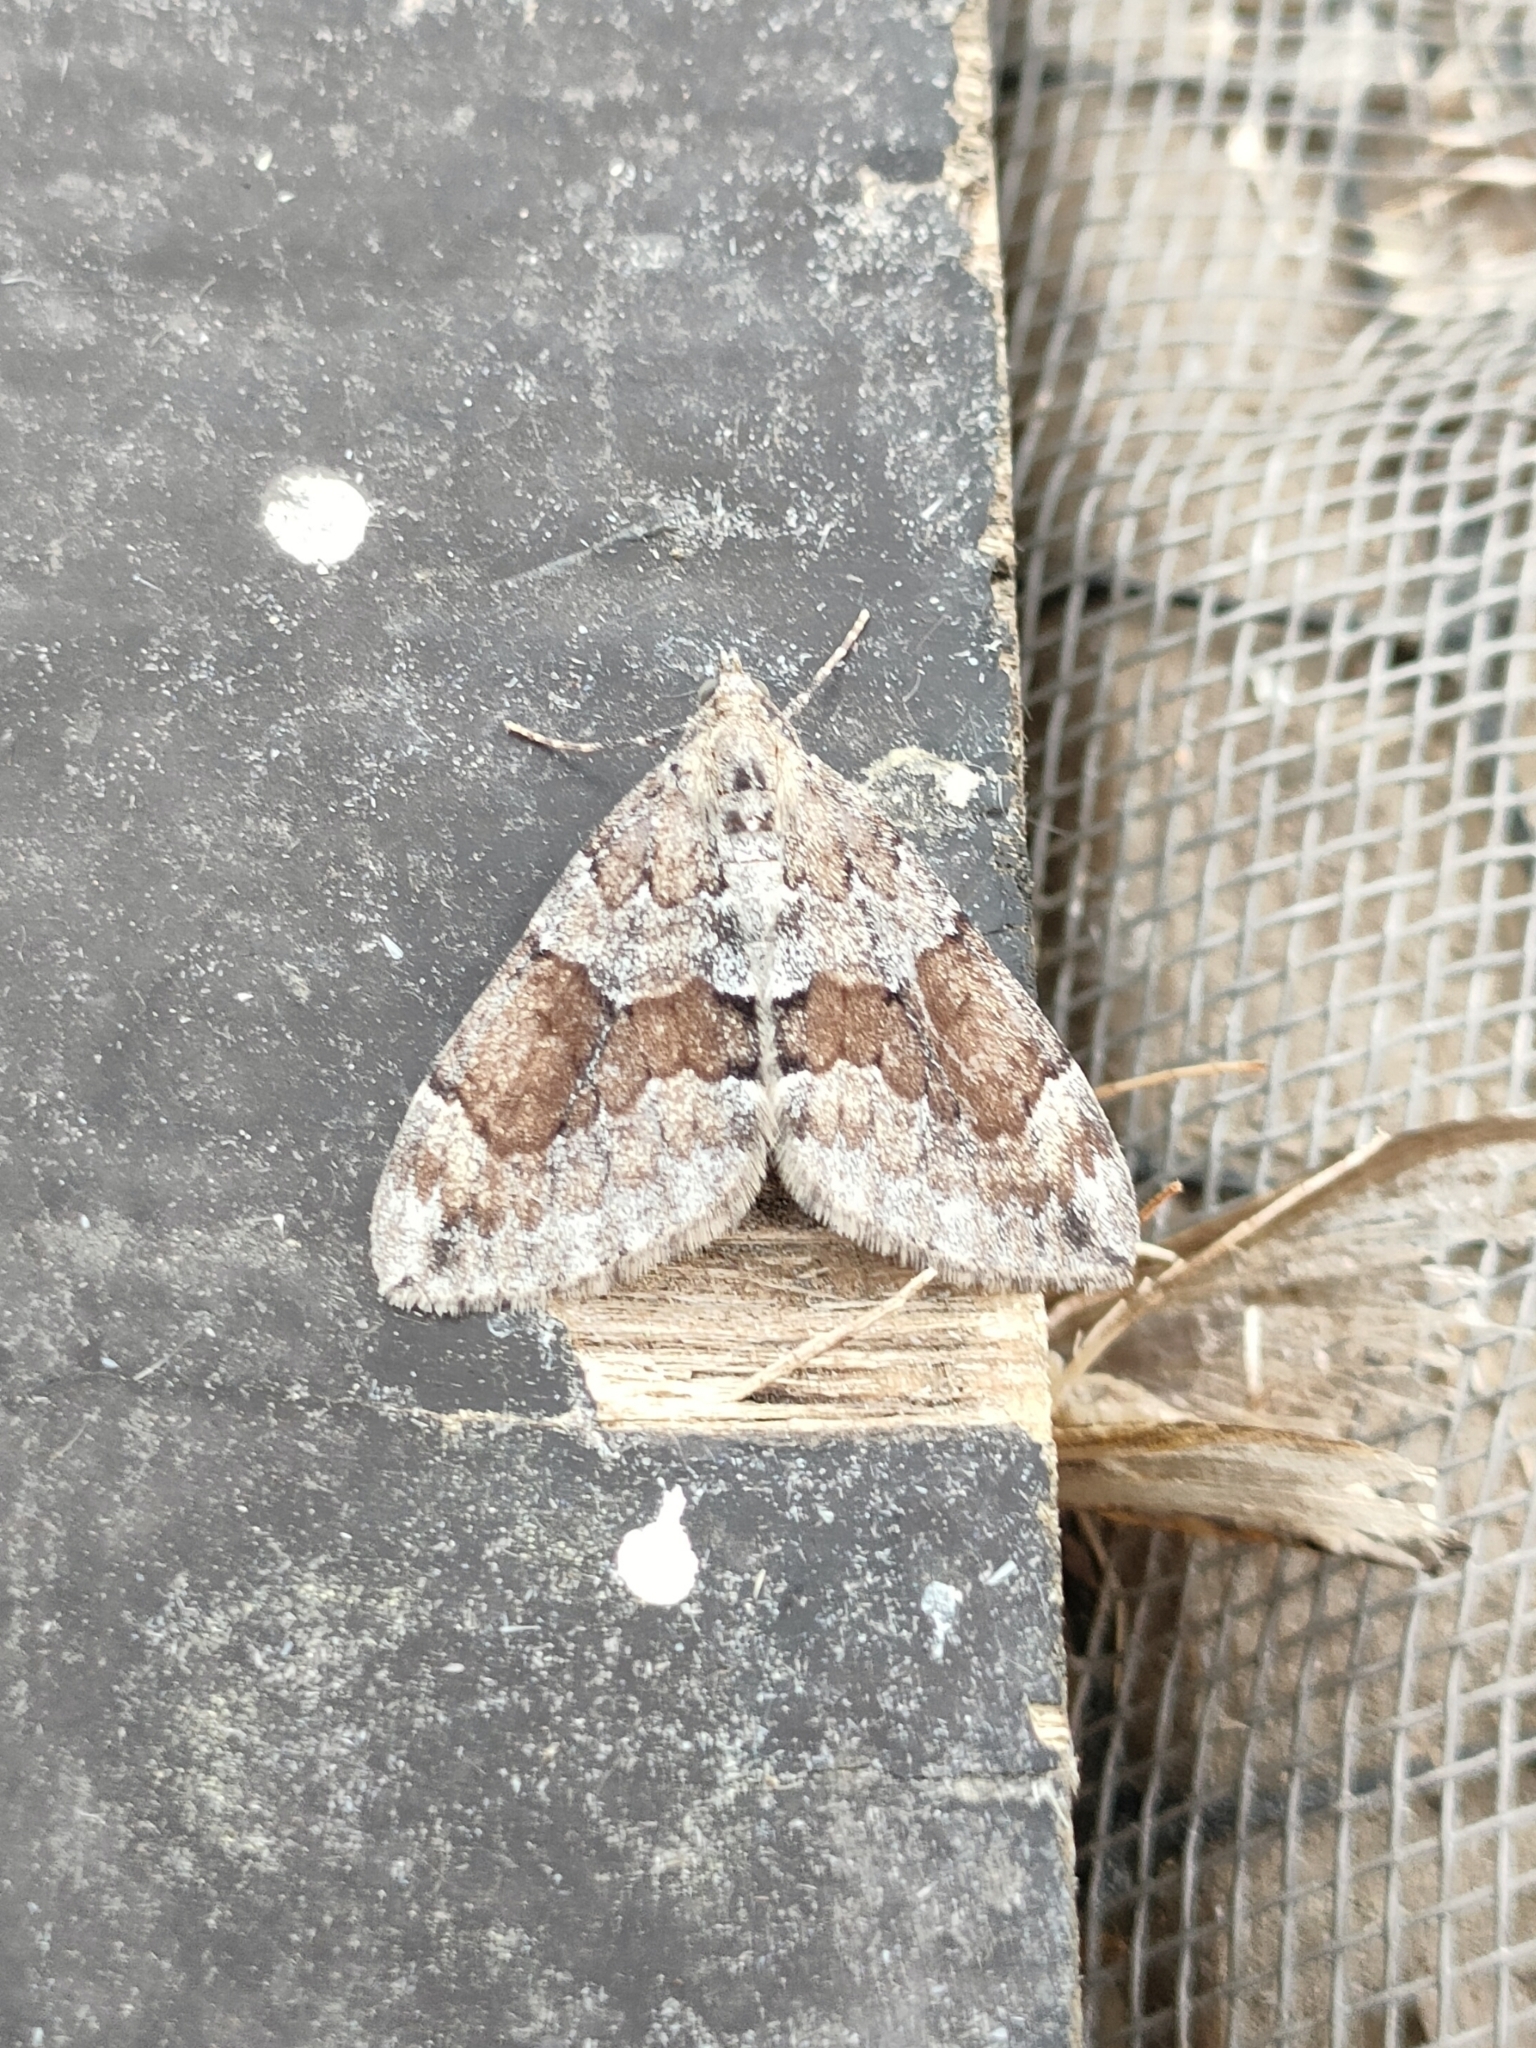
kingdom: Animalia
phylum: Arthropoda
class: Insecta
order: Lepidoptera
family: Geometridae
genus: Thera
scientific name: Thera obeliscata
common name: Grey pine carpet
